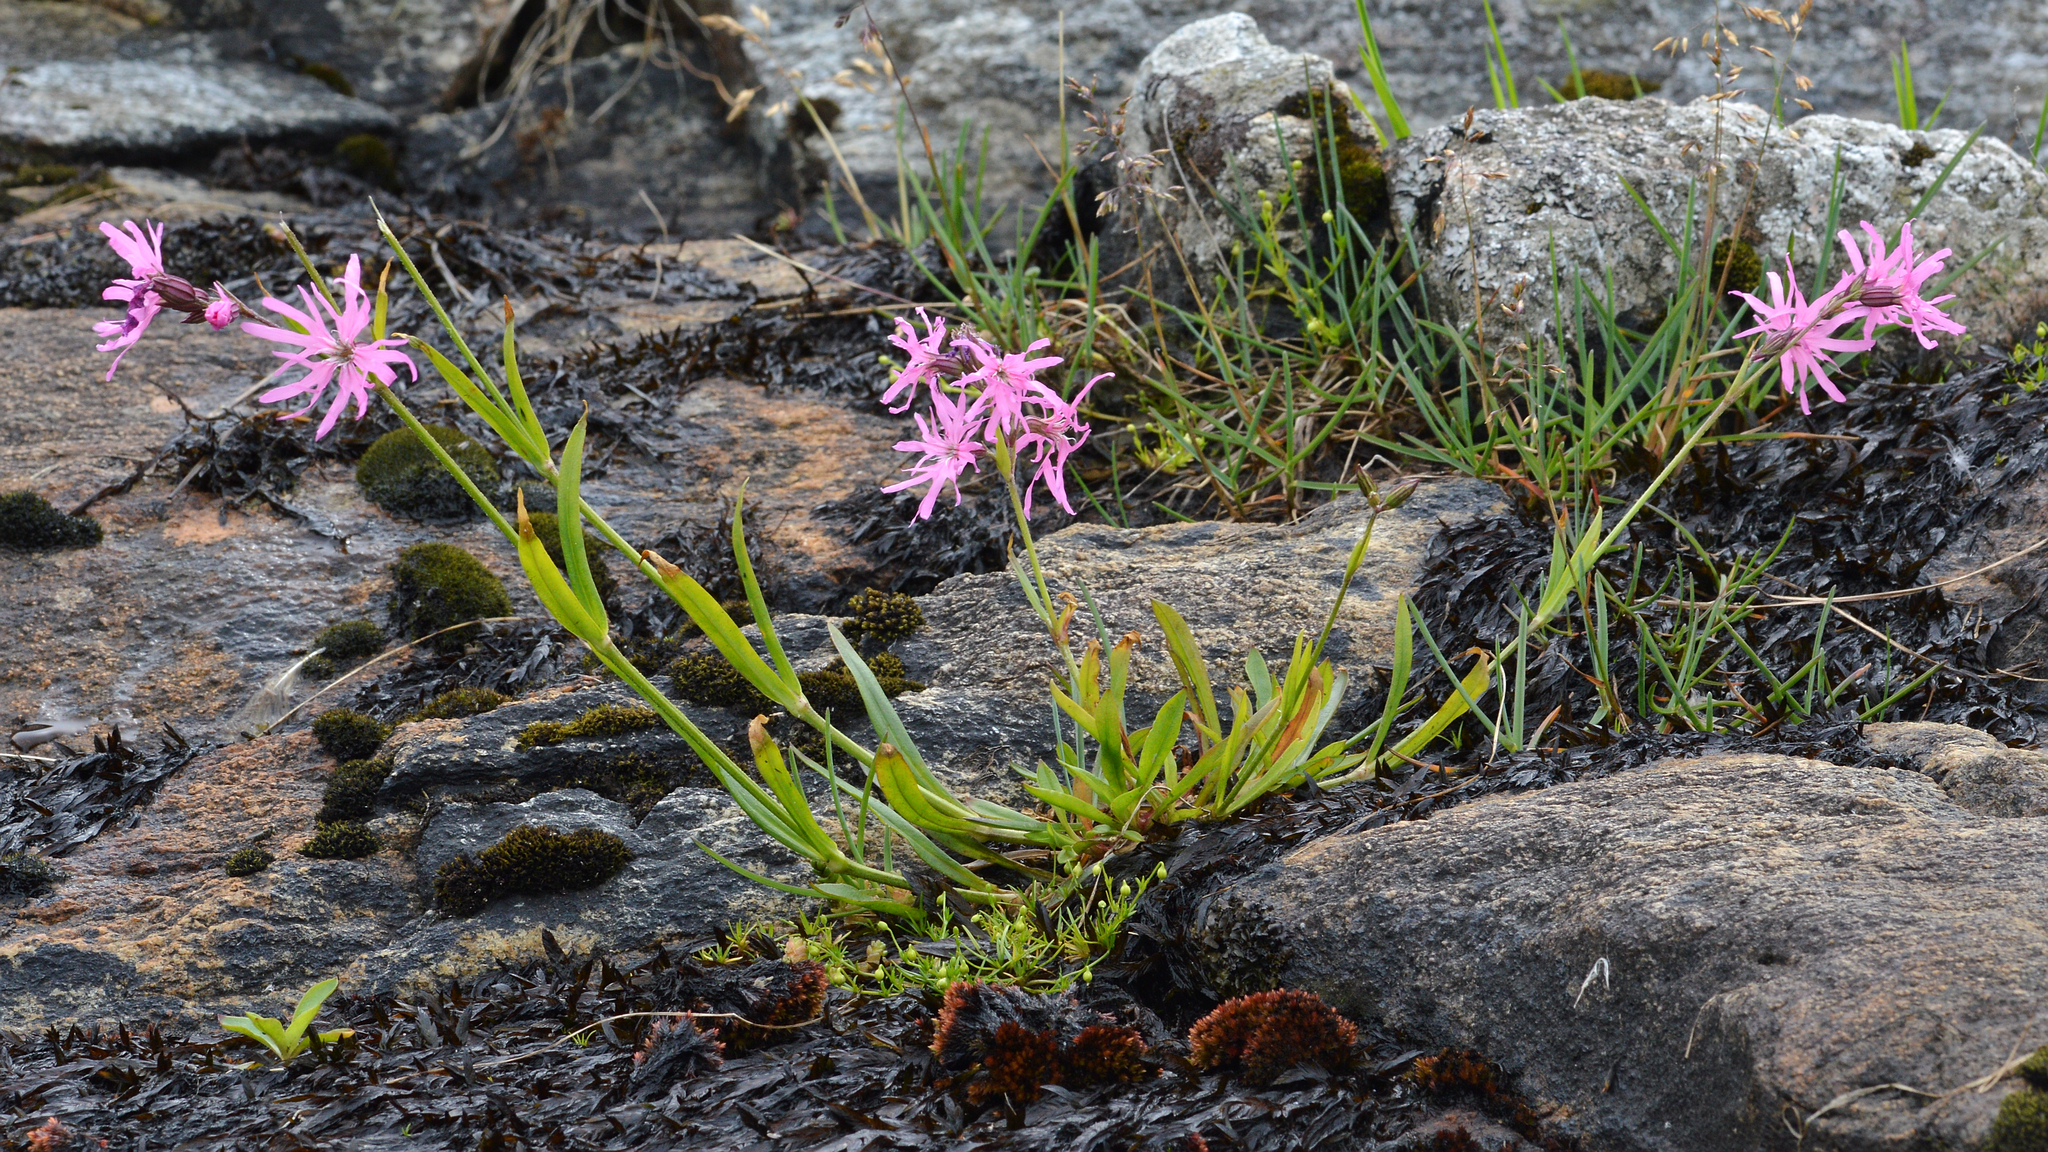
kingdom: Plantae
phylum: Tracheophyta
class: Magnoliopsida
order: Caryophyllales
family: Caryophyllaceae
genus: Silene
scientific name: Silene flos-cuculi
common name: Ragged-robin
